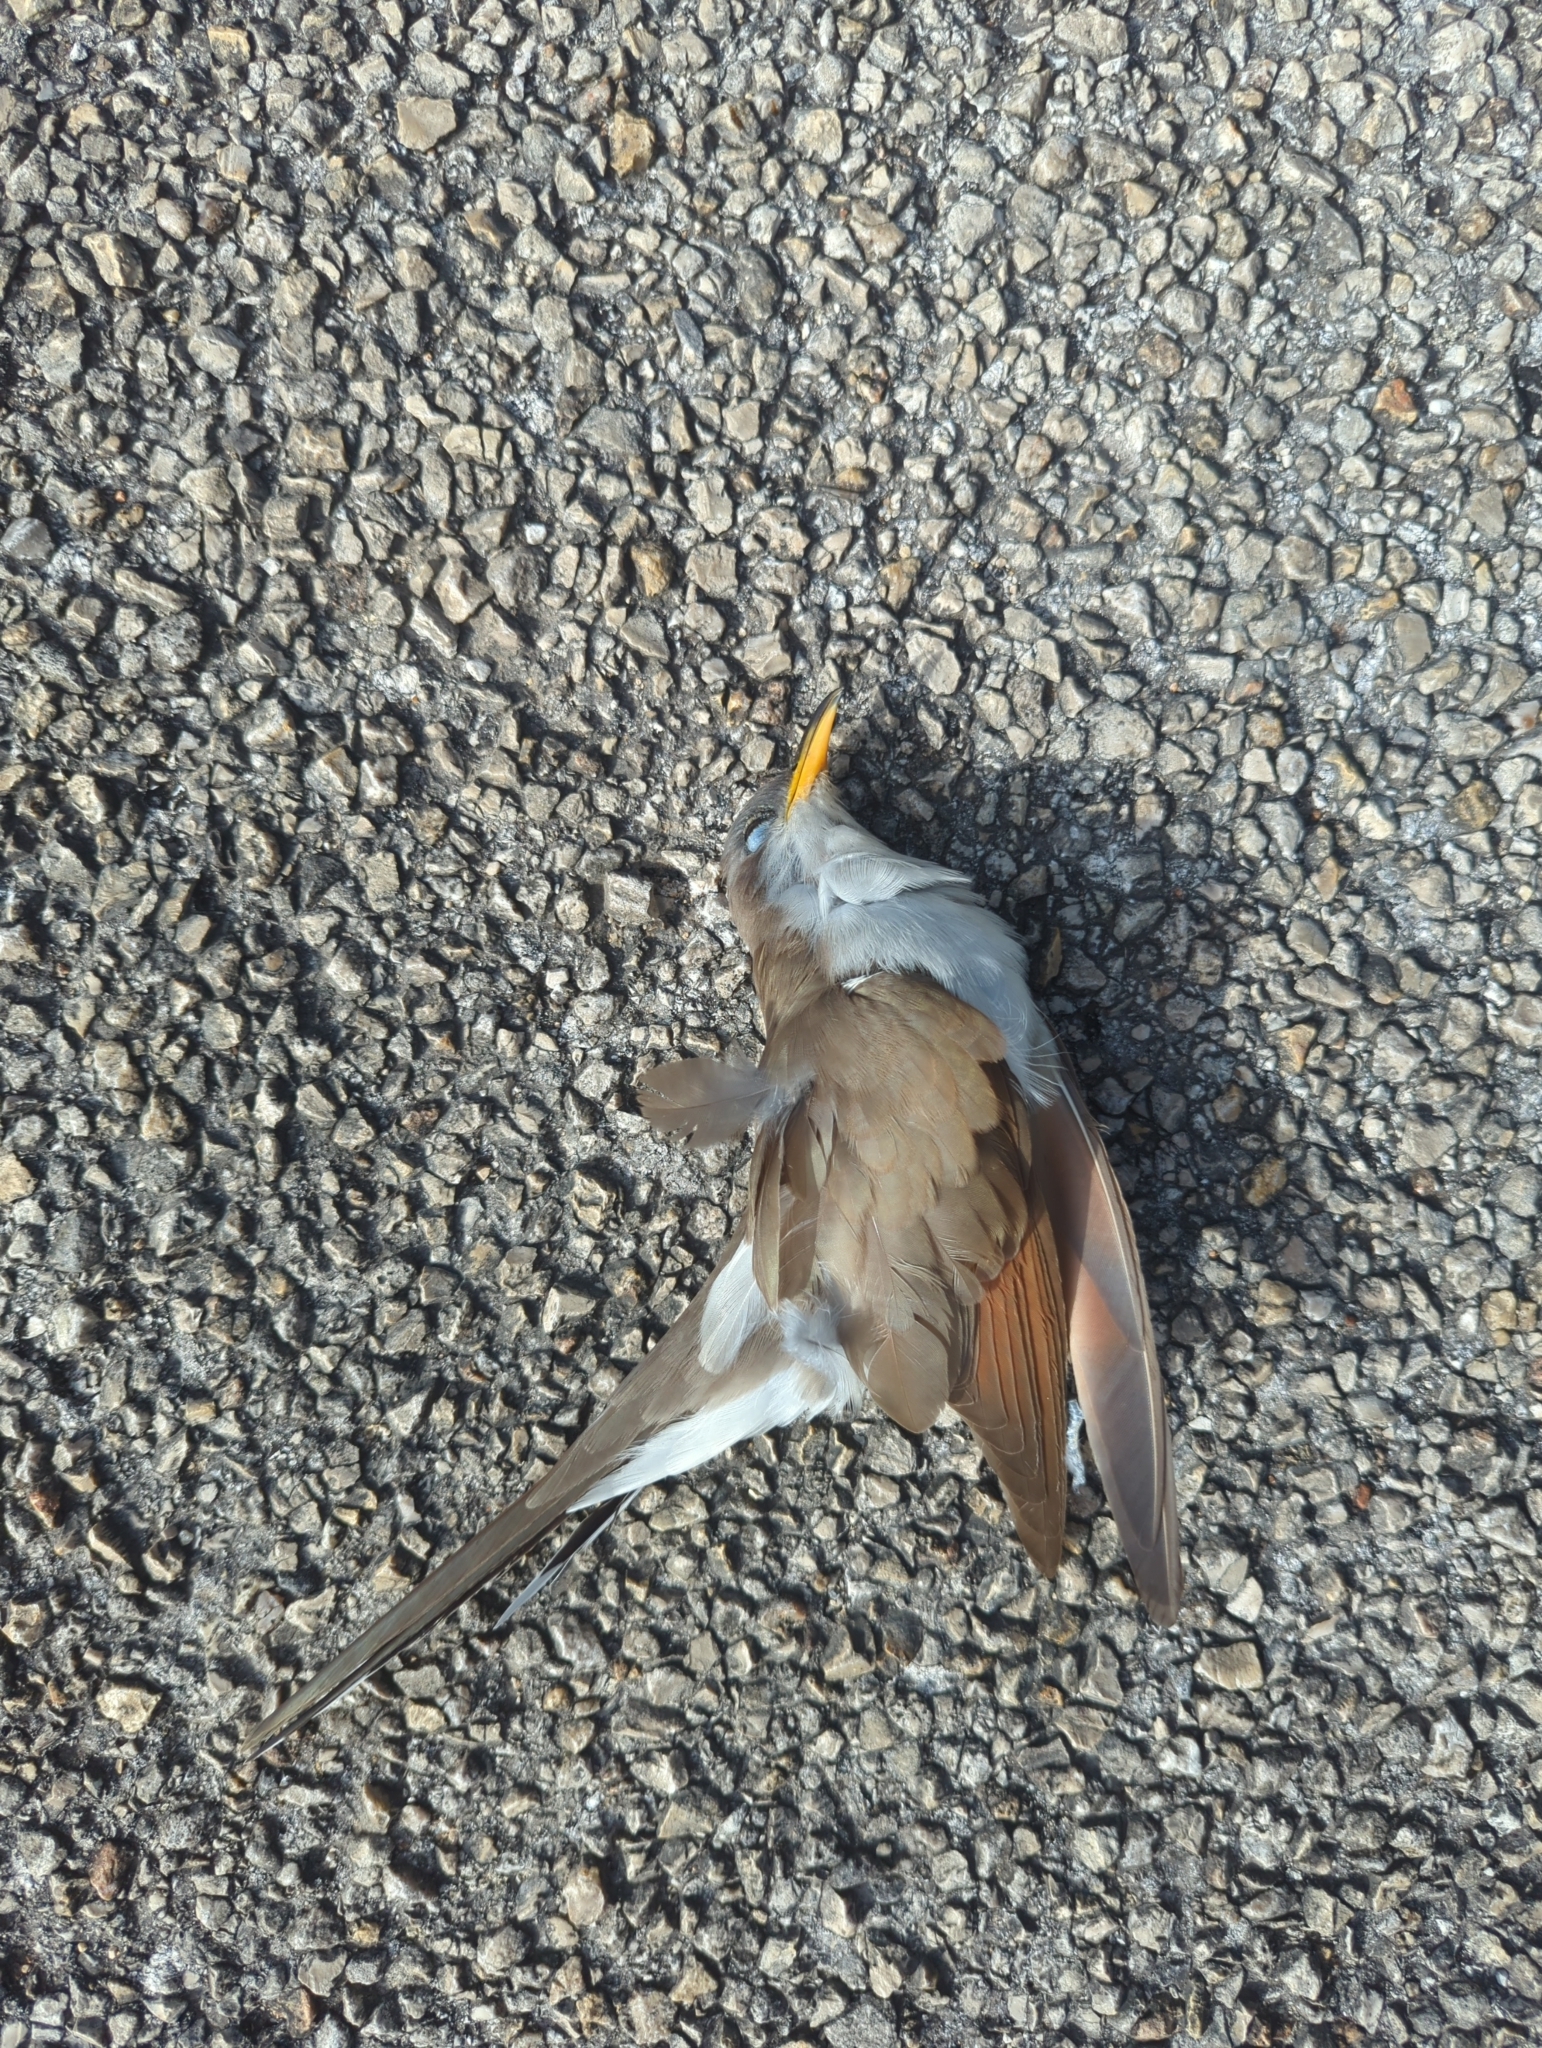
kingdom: Animalia
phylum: Chordata
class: Aves
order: Cuculiformes
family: Cuculidae
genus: Coccyzus
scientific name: Coccyzus americanus
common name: Yellow-billed cuckoo
